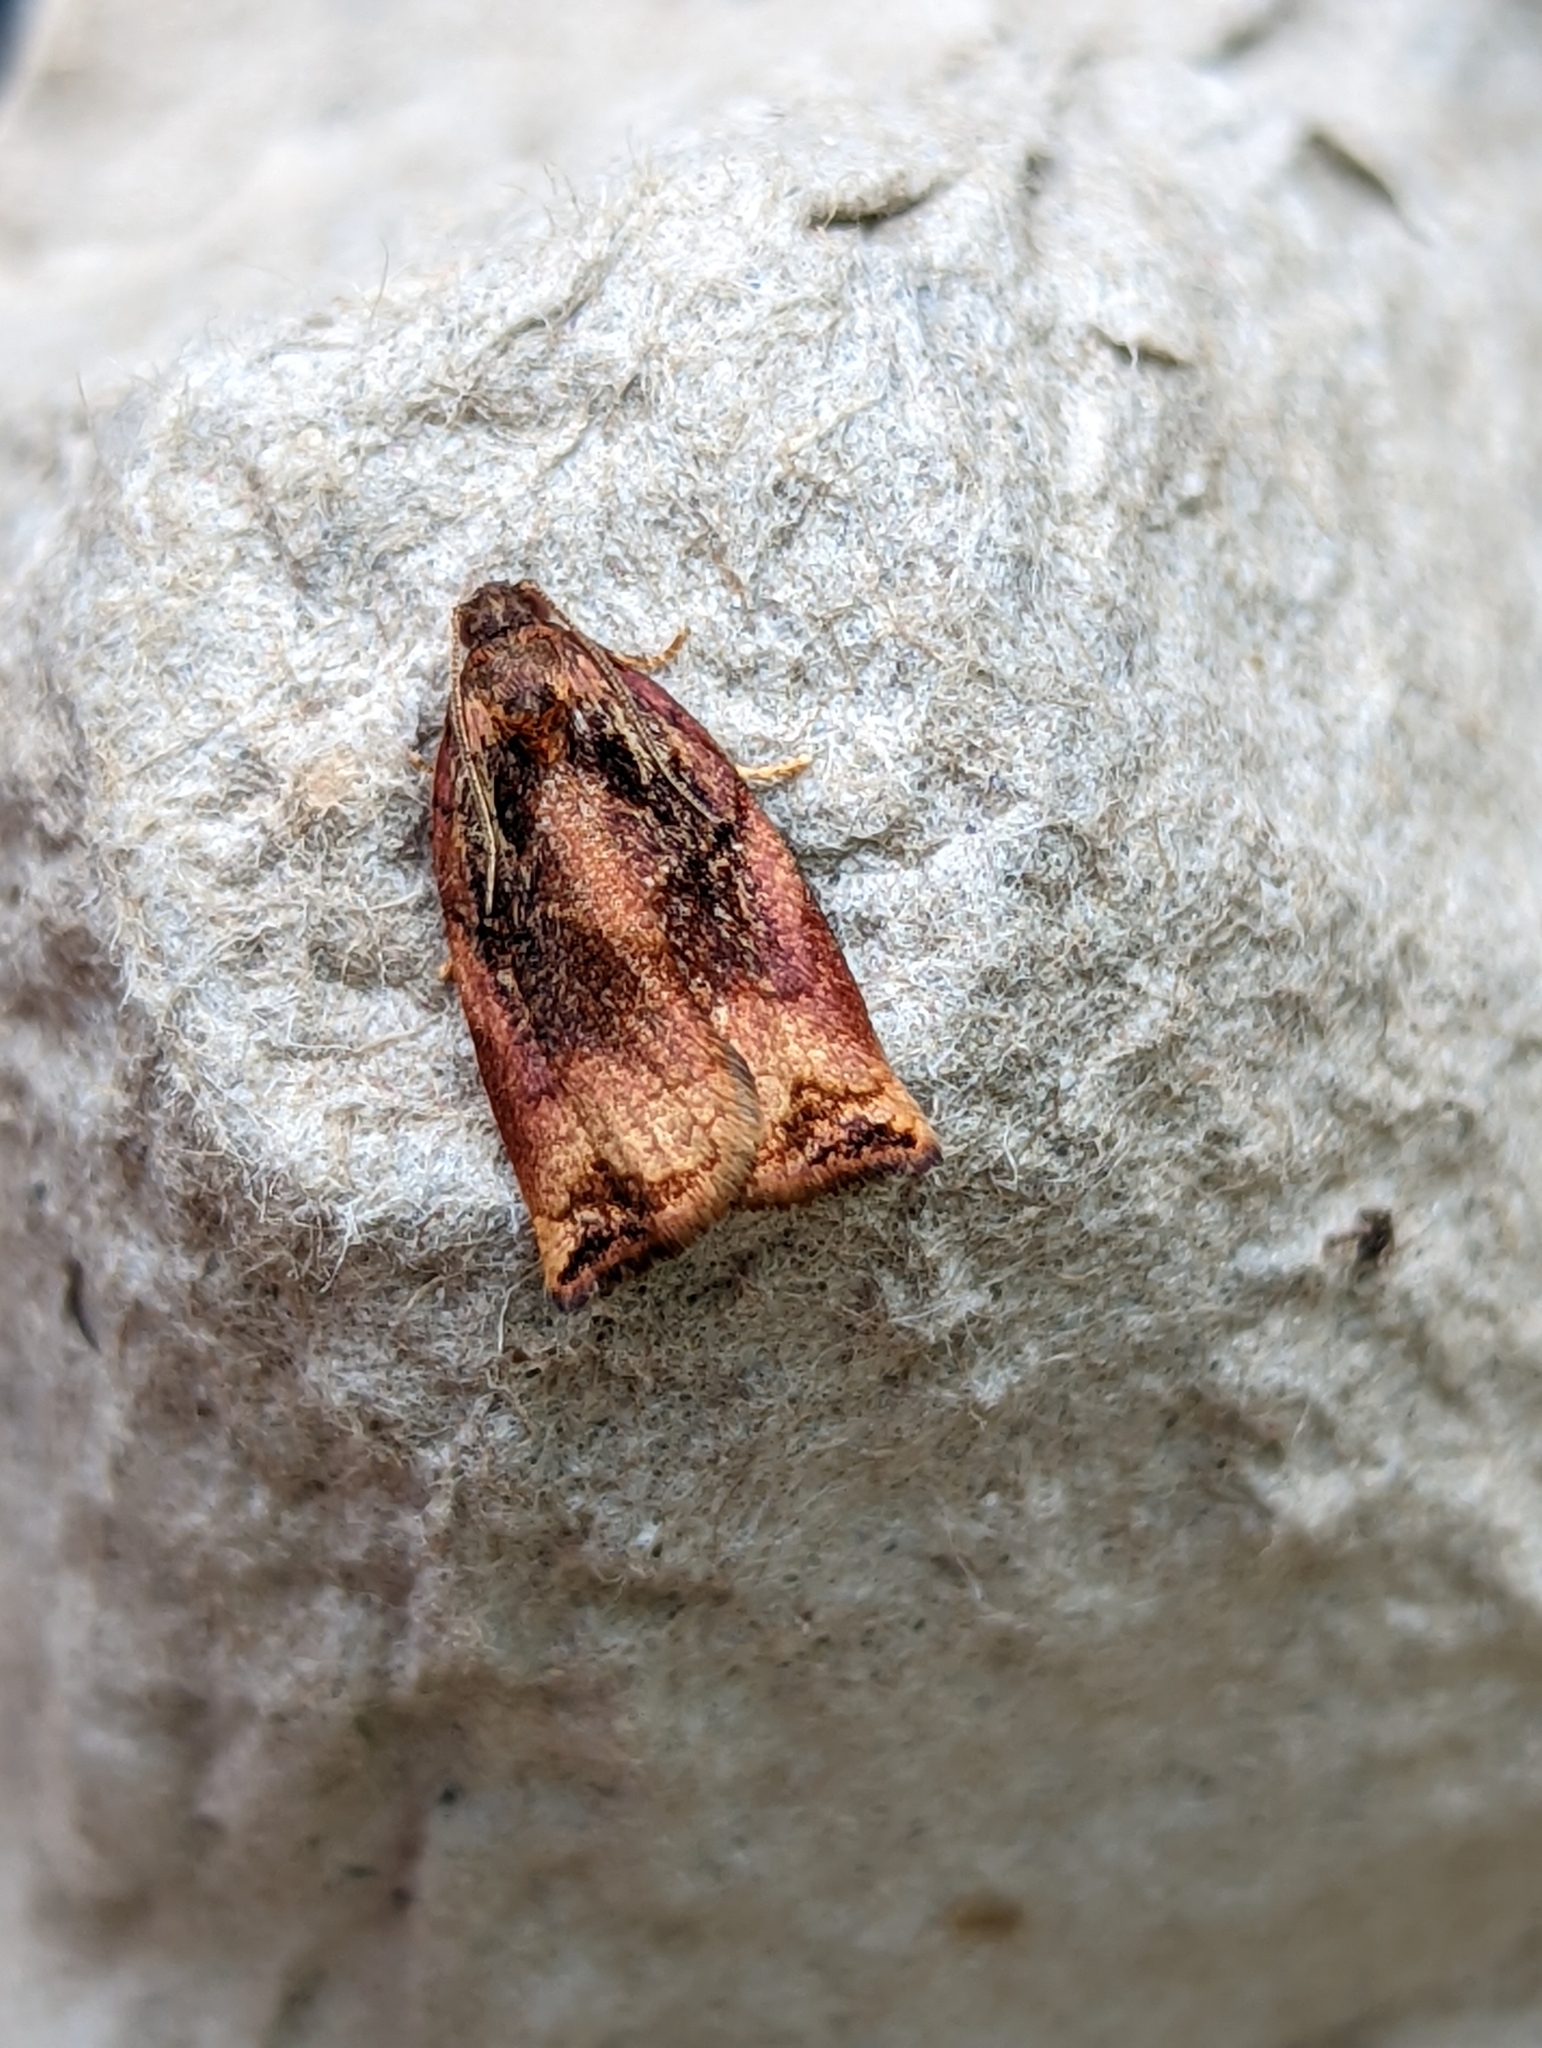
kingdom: Animalia
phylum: Arthropoda
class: Insecta
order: Lepidoptera
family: Tortricidae
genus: Archips
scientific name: Archips podana
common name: Large fruit-tree tortrix
